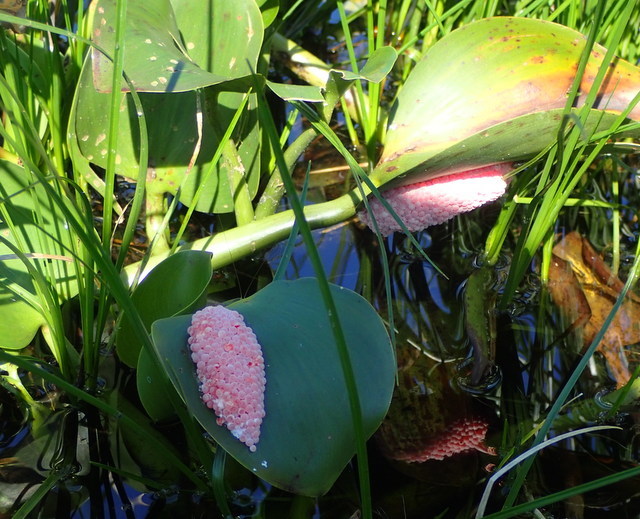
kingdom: Animalia
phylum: Mollusca
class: Gastropoda
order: Architaenioglossa
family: Ampullariidae
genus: Pomacea
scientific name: Pomacea maculata
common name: Giant applesnail
